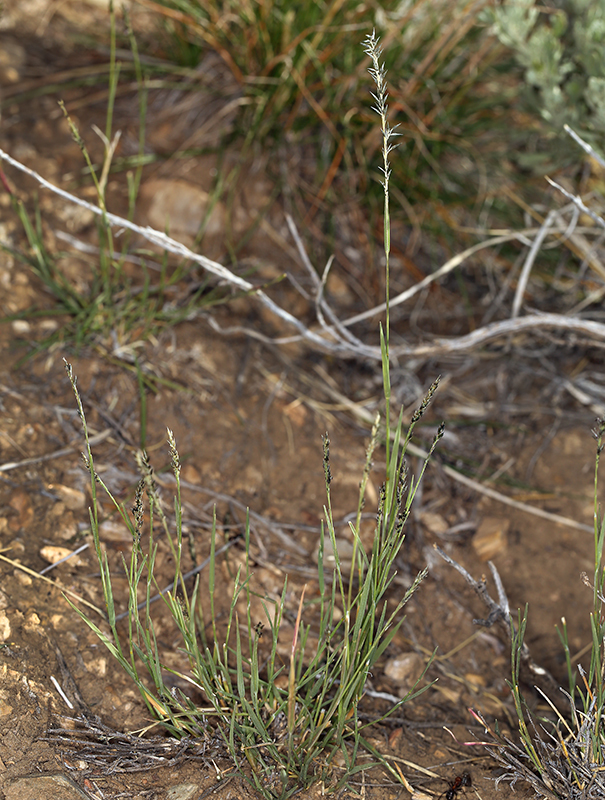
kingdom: Plantae
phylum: Tracheophyta
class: Liliopsida
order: Poales
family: Poaceae
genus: Muhlenbergia
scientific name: Muhlenbergia richardsonis
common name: Mat muhly
